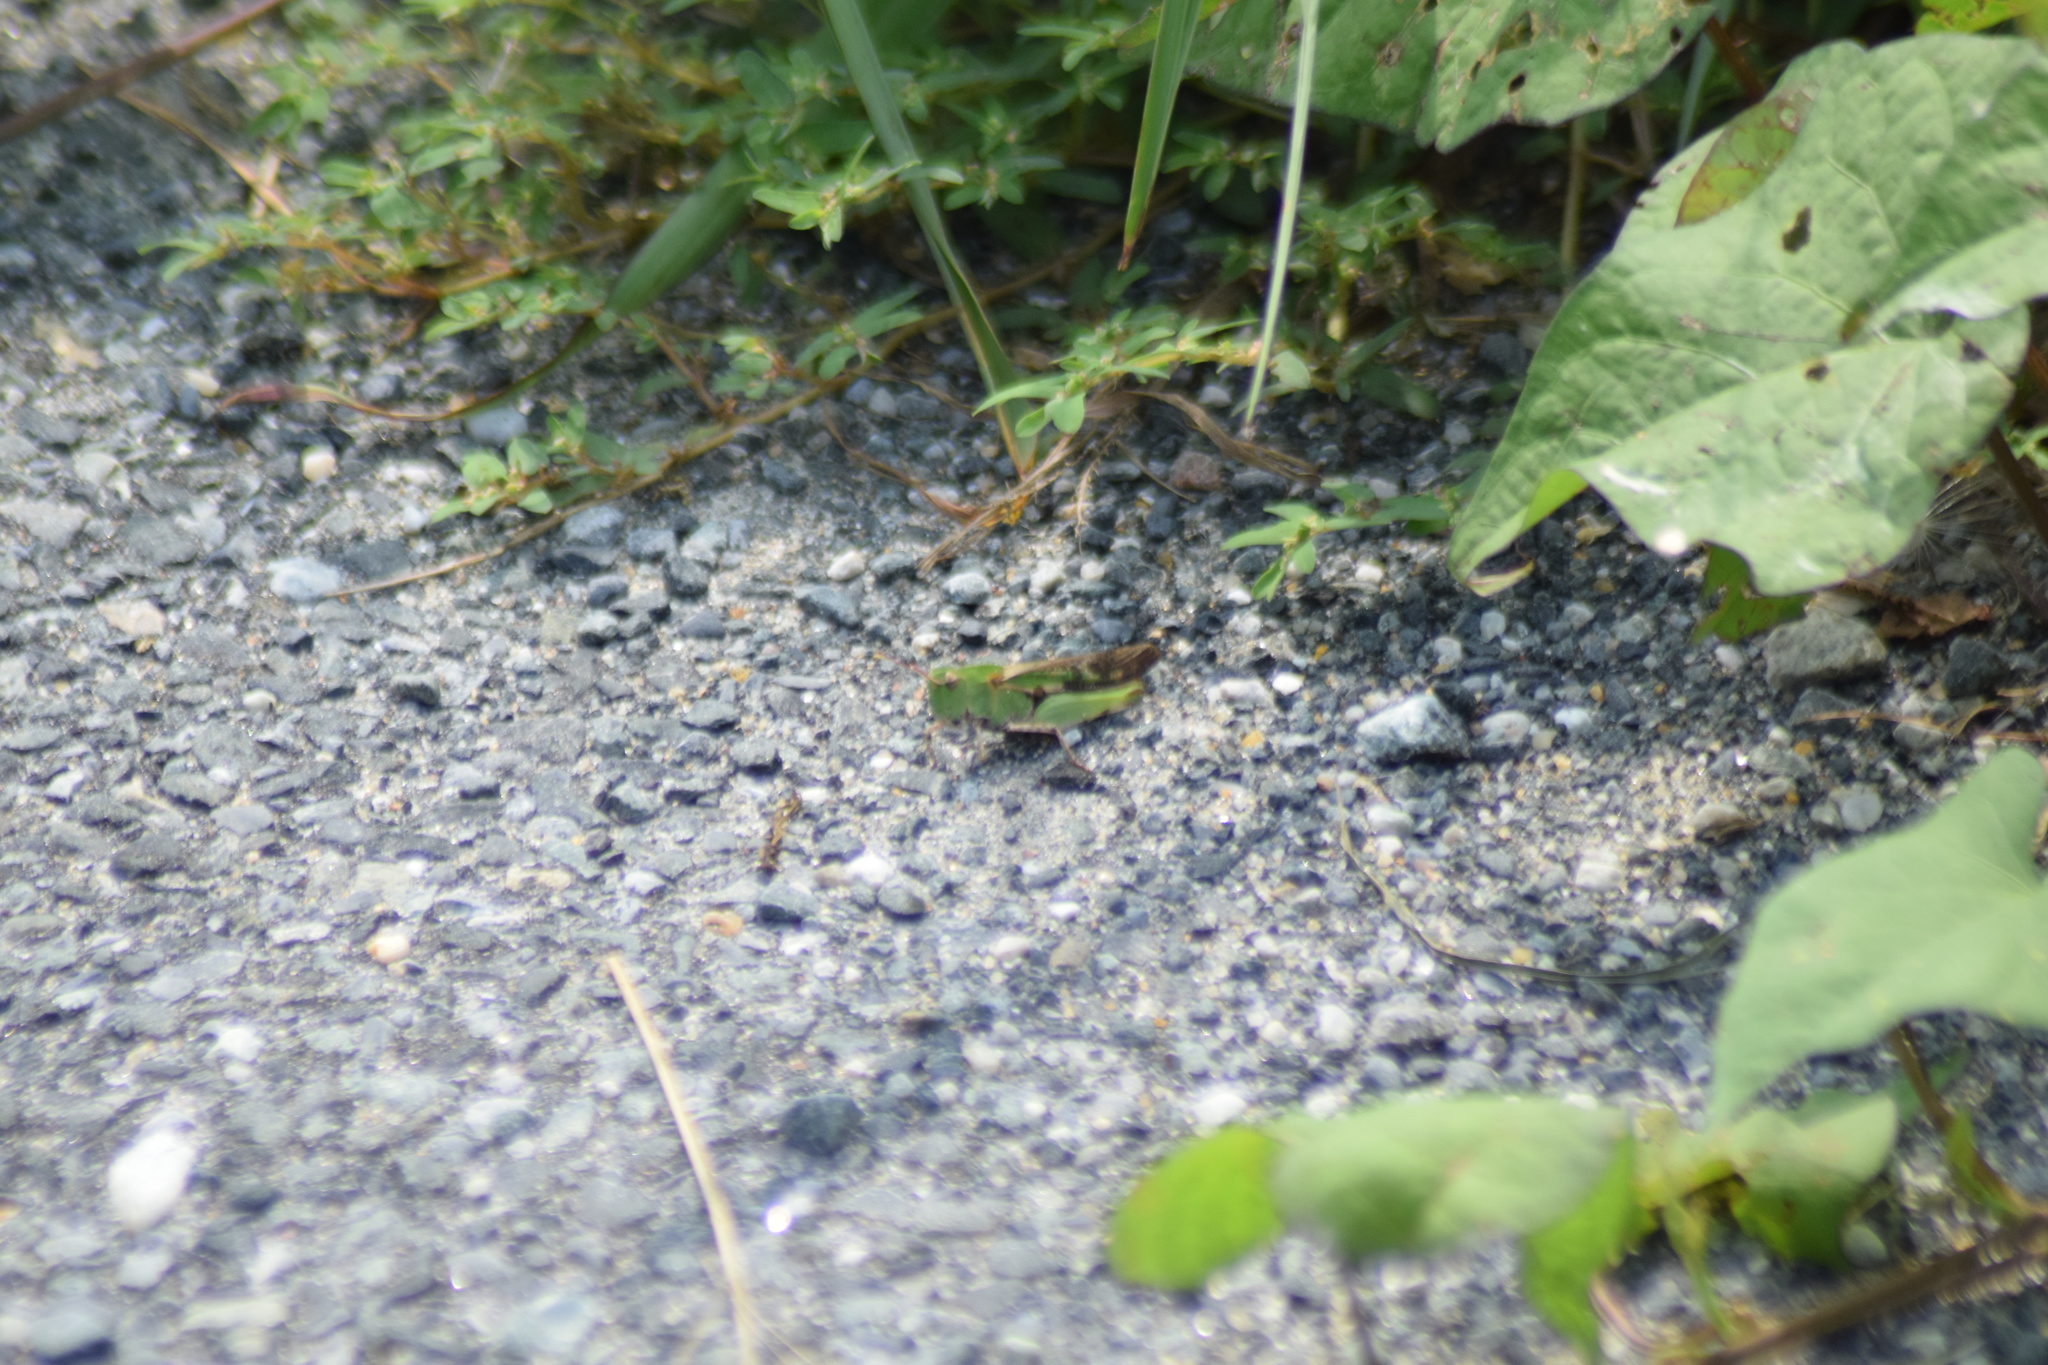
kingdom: Animalia
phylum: Arthropoda
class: Insecta
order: Orthoptera
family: Acrididae
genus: Chortophaga
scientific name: Chortophaga viridifasciata
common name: Green-striped grasshopper
